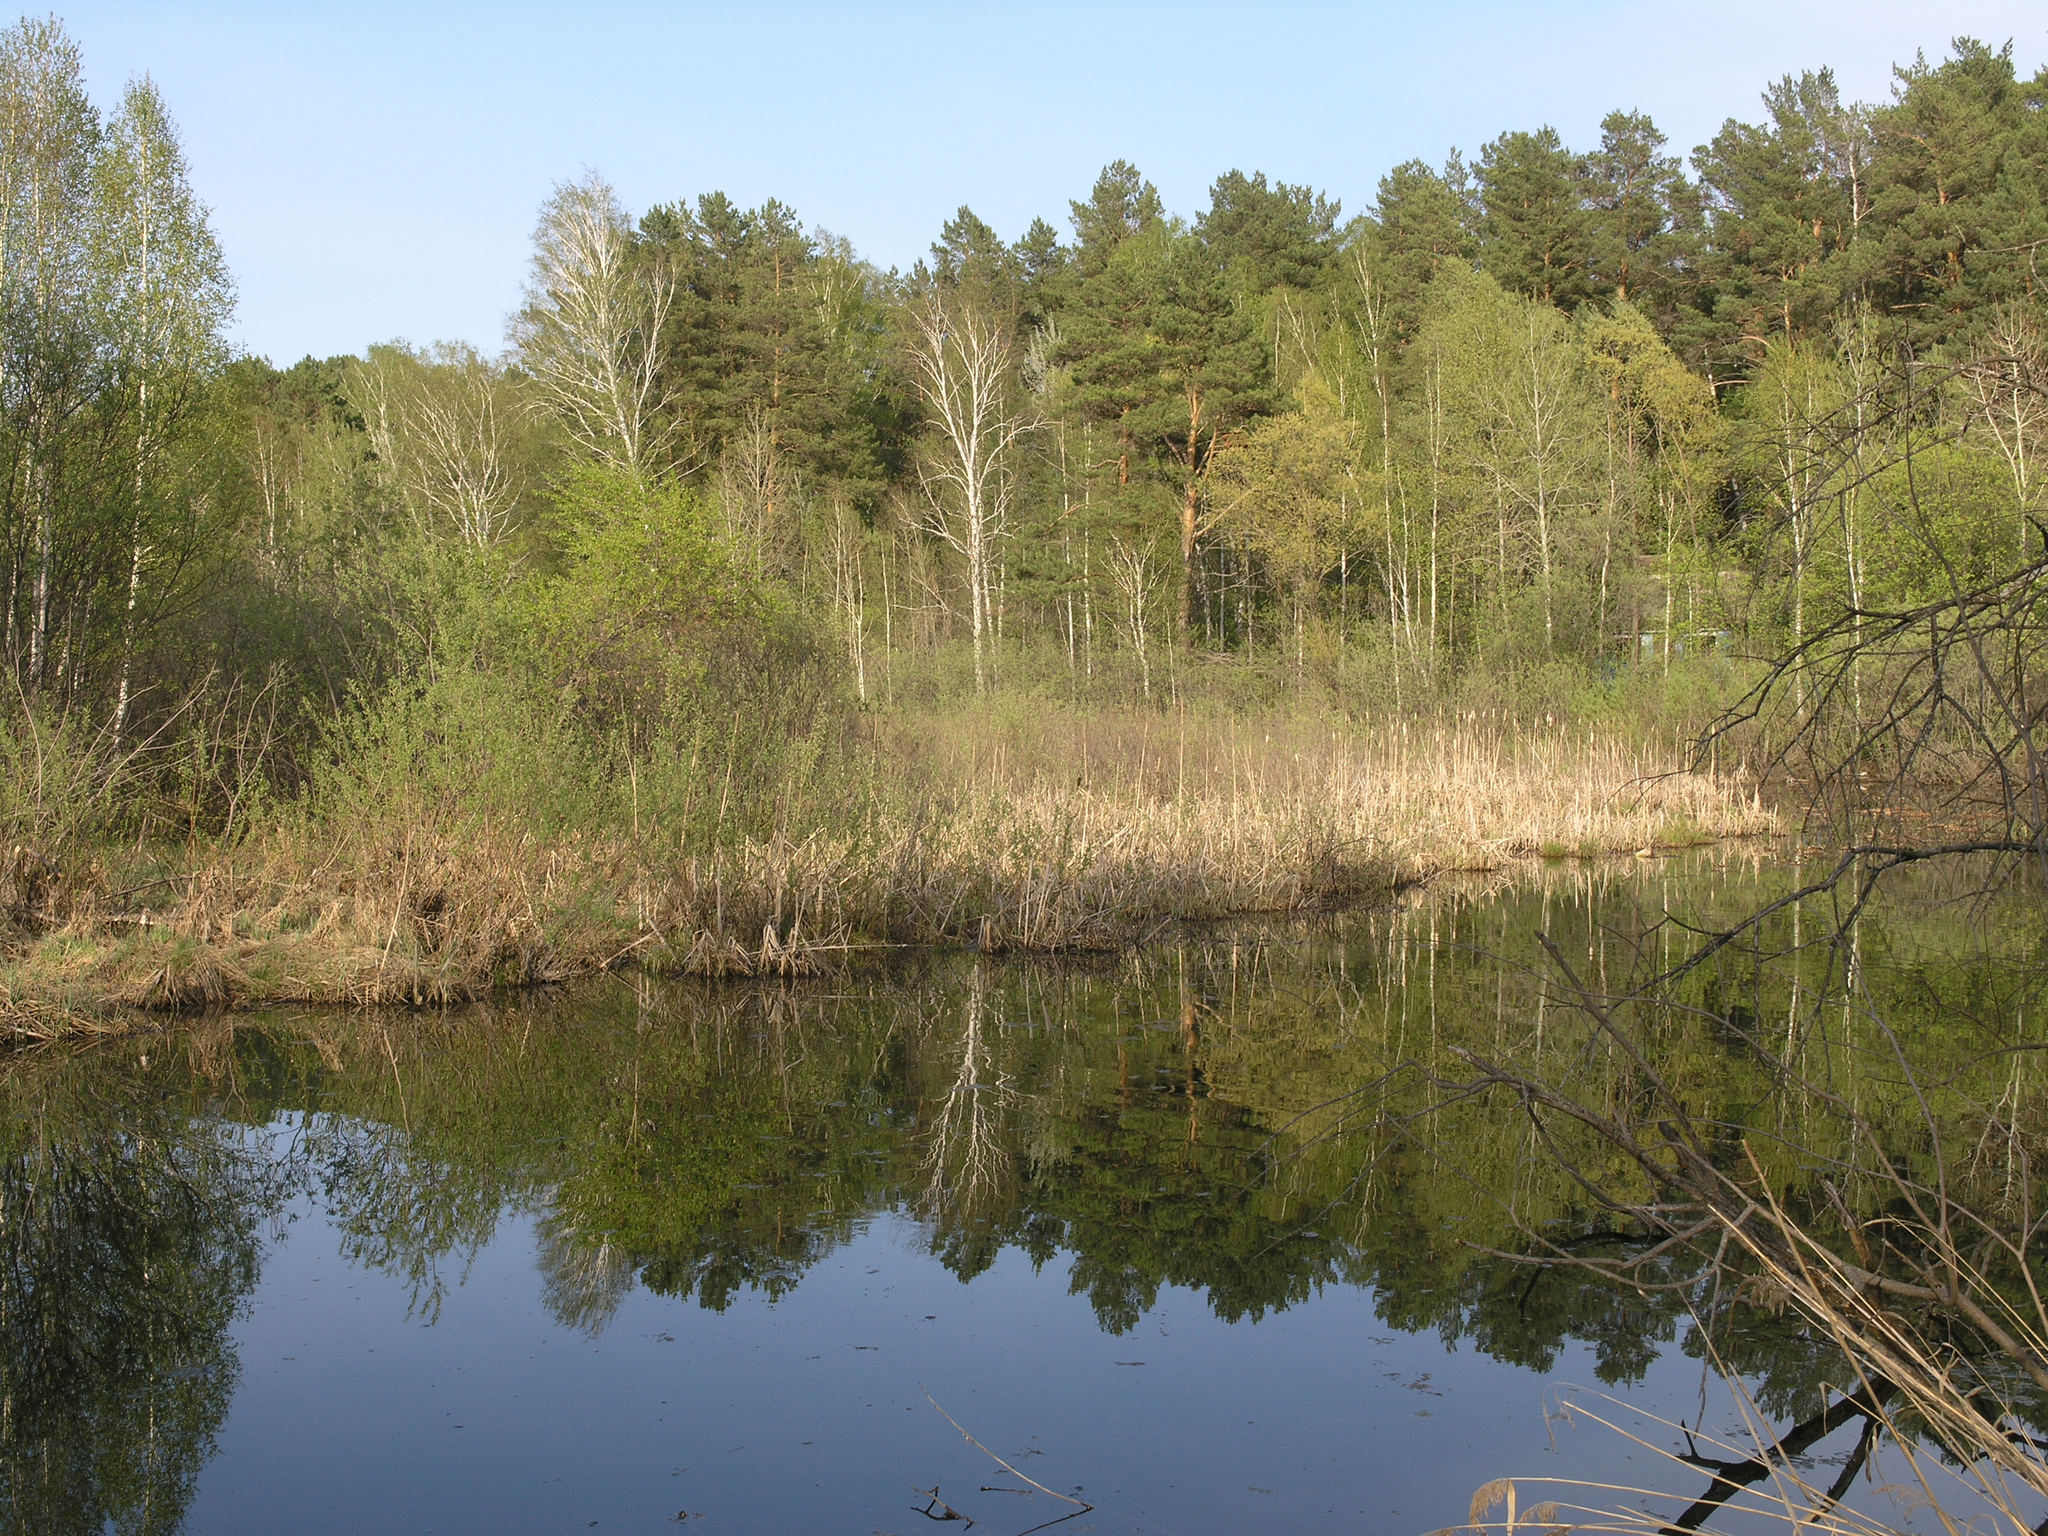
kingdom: Plantae
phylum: Tracheophyta
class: Pinopsida
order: Pinales
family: Pinaceae
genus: Pinus
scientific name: Pinus sylvestris
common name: Scots pine
